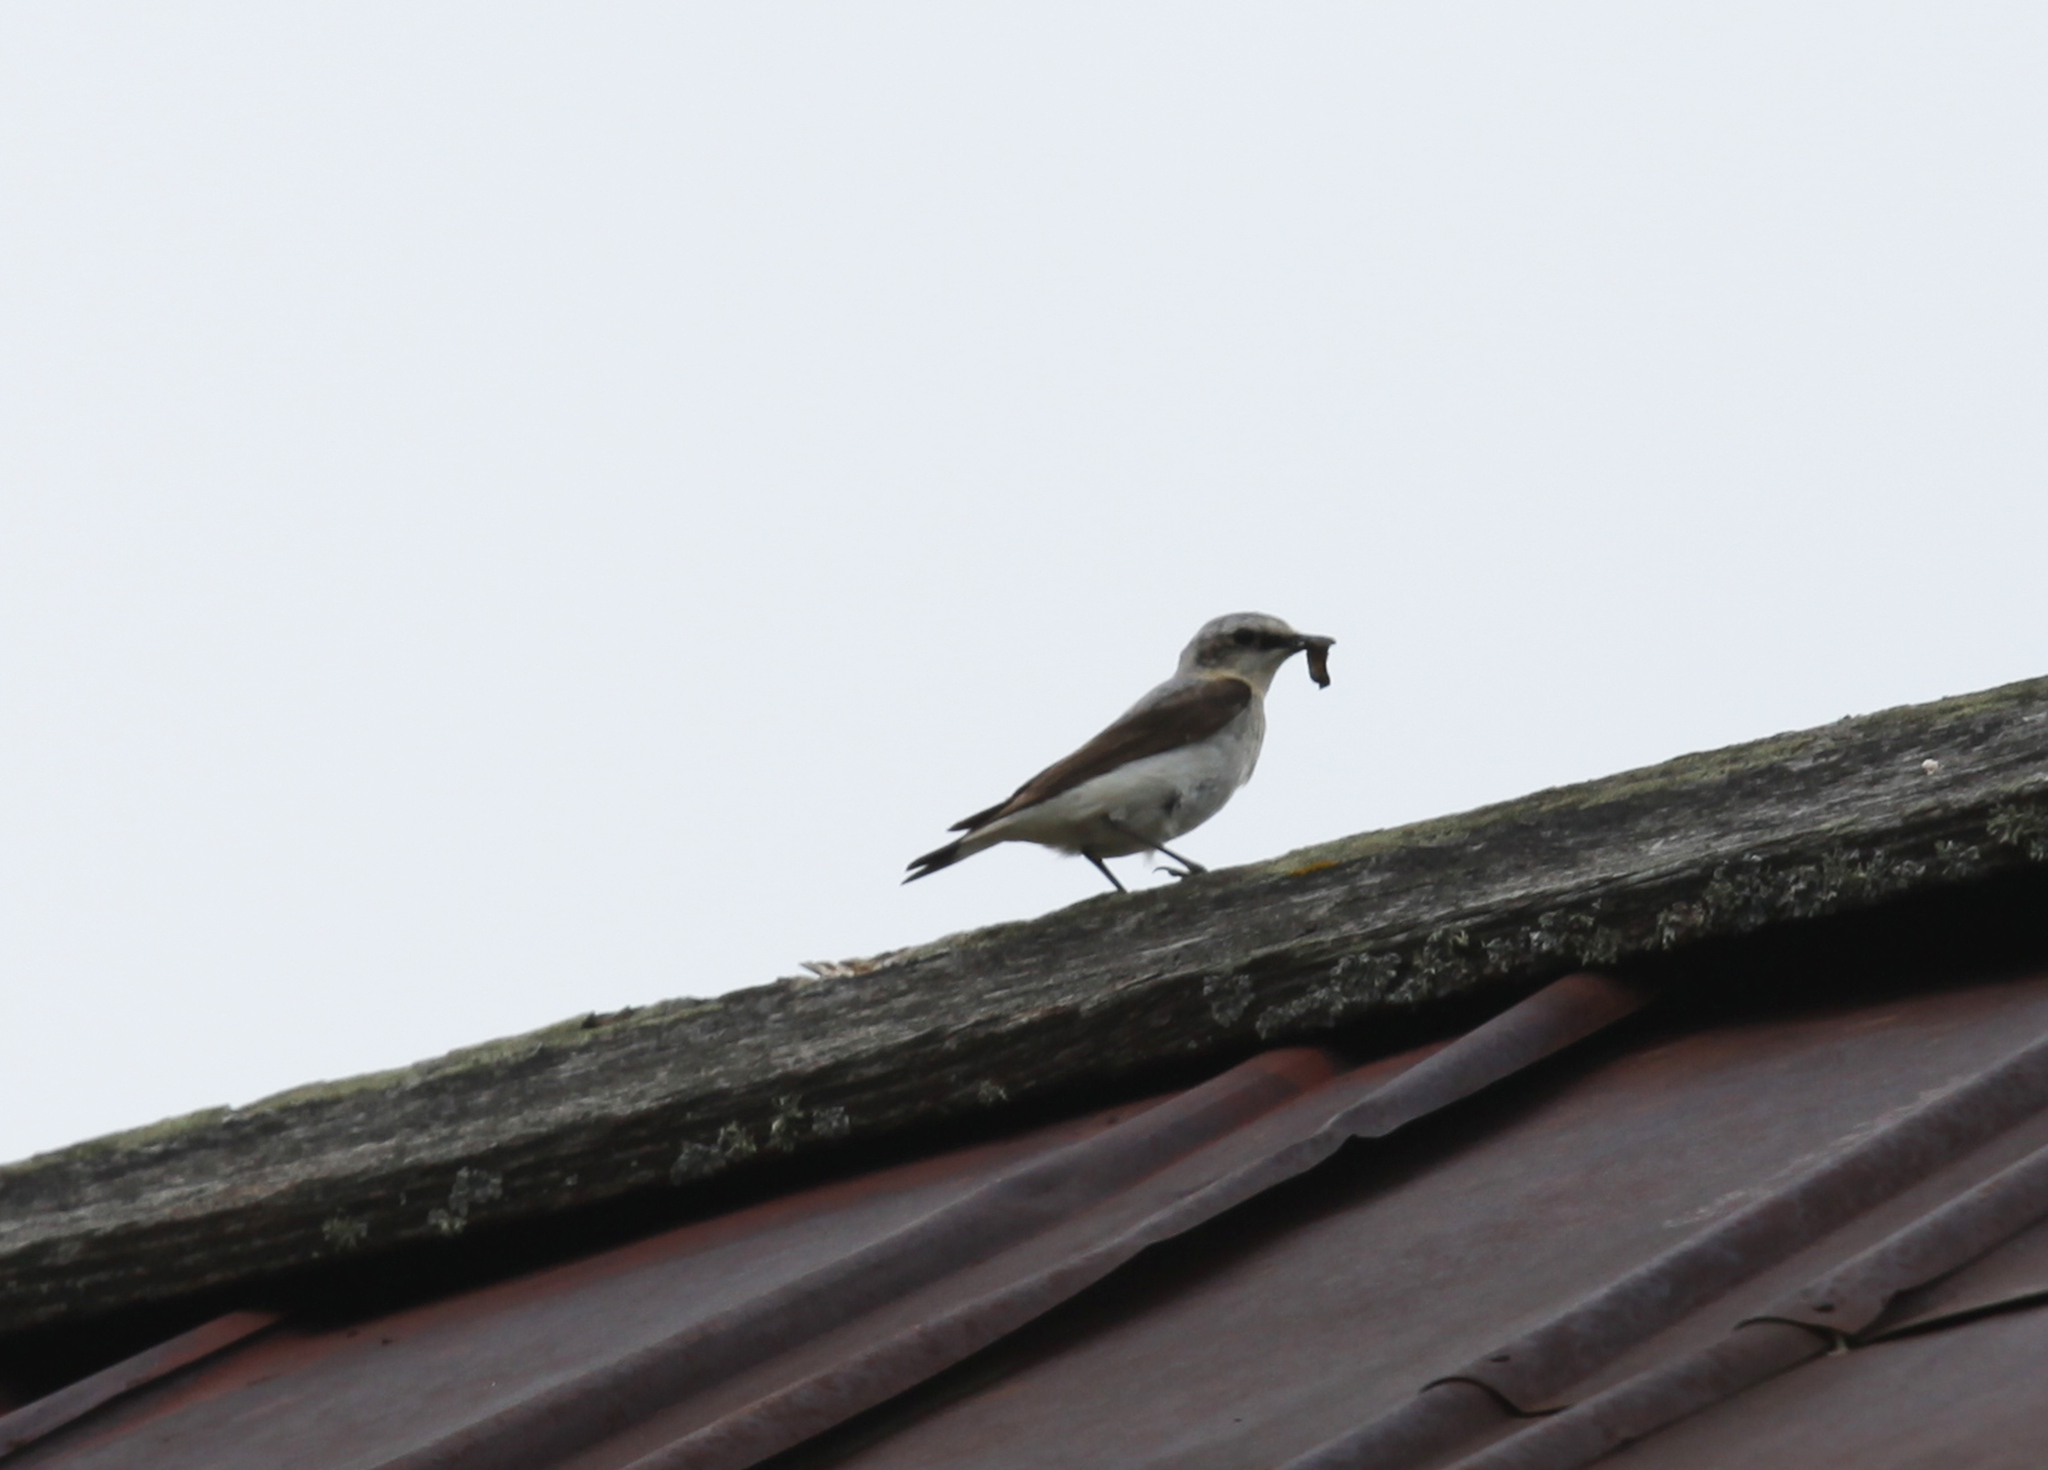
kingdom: Animalia
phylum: Chordata
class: Aves
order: Passeriformes
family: Muscicapidae
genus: Oenanthe
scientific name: Oenanthe oenanthe
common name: Northern wheatear
